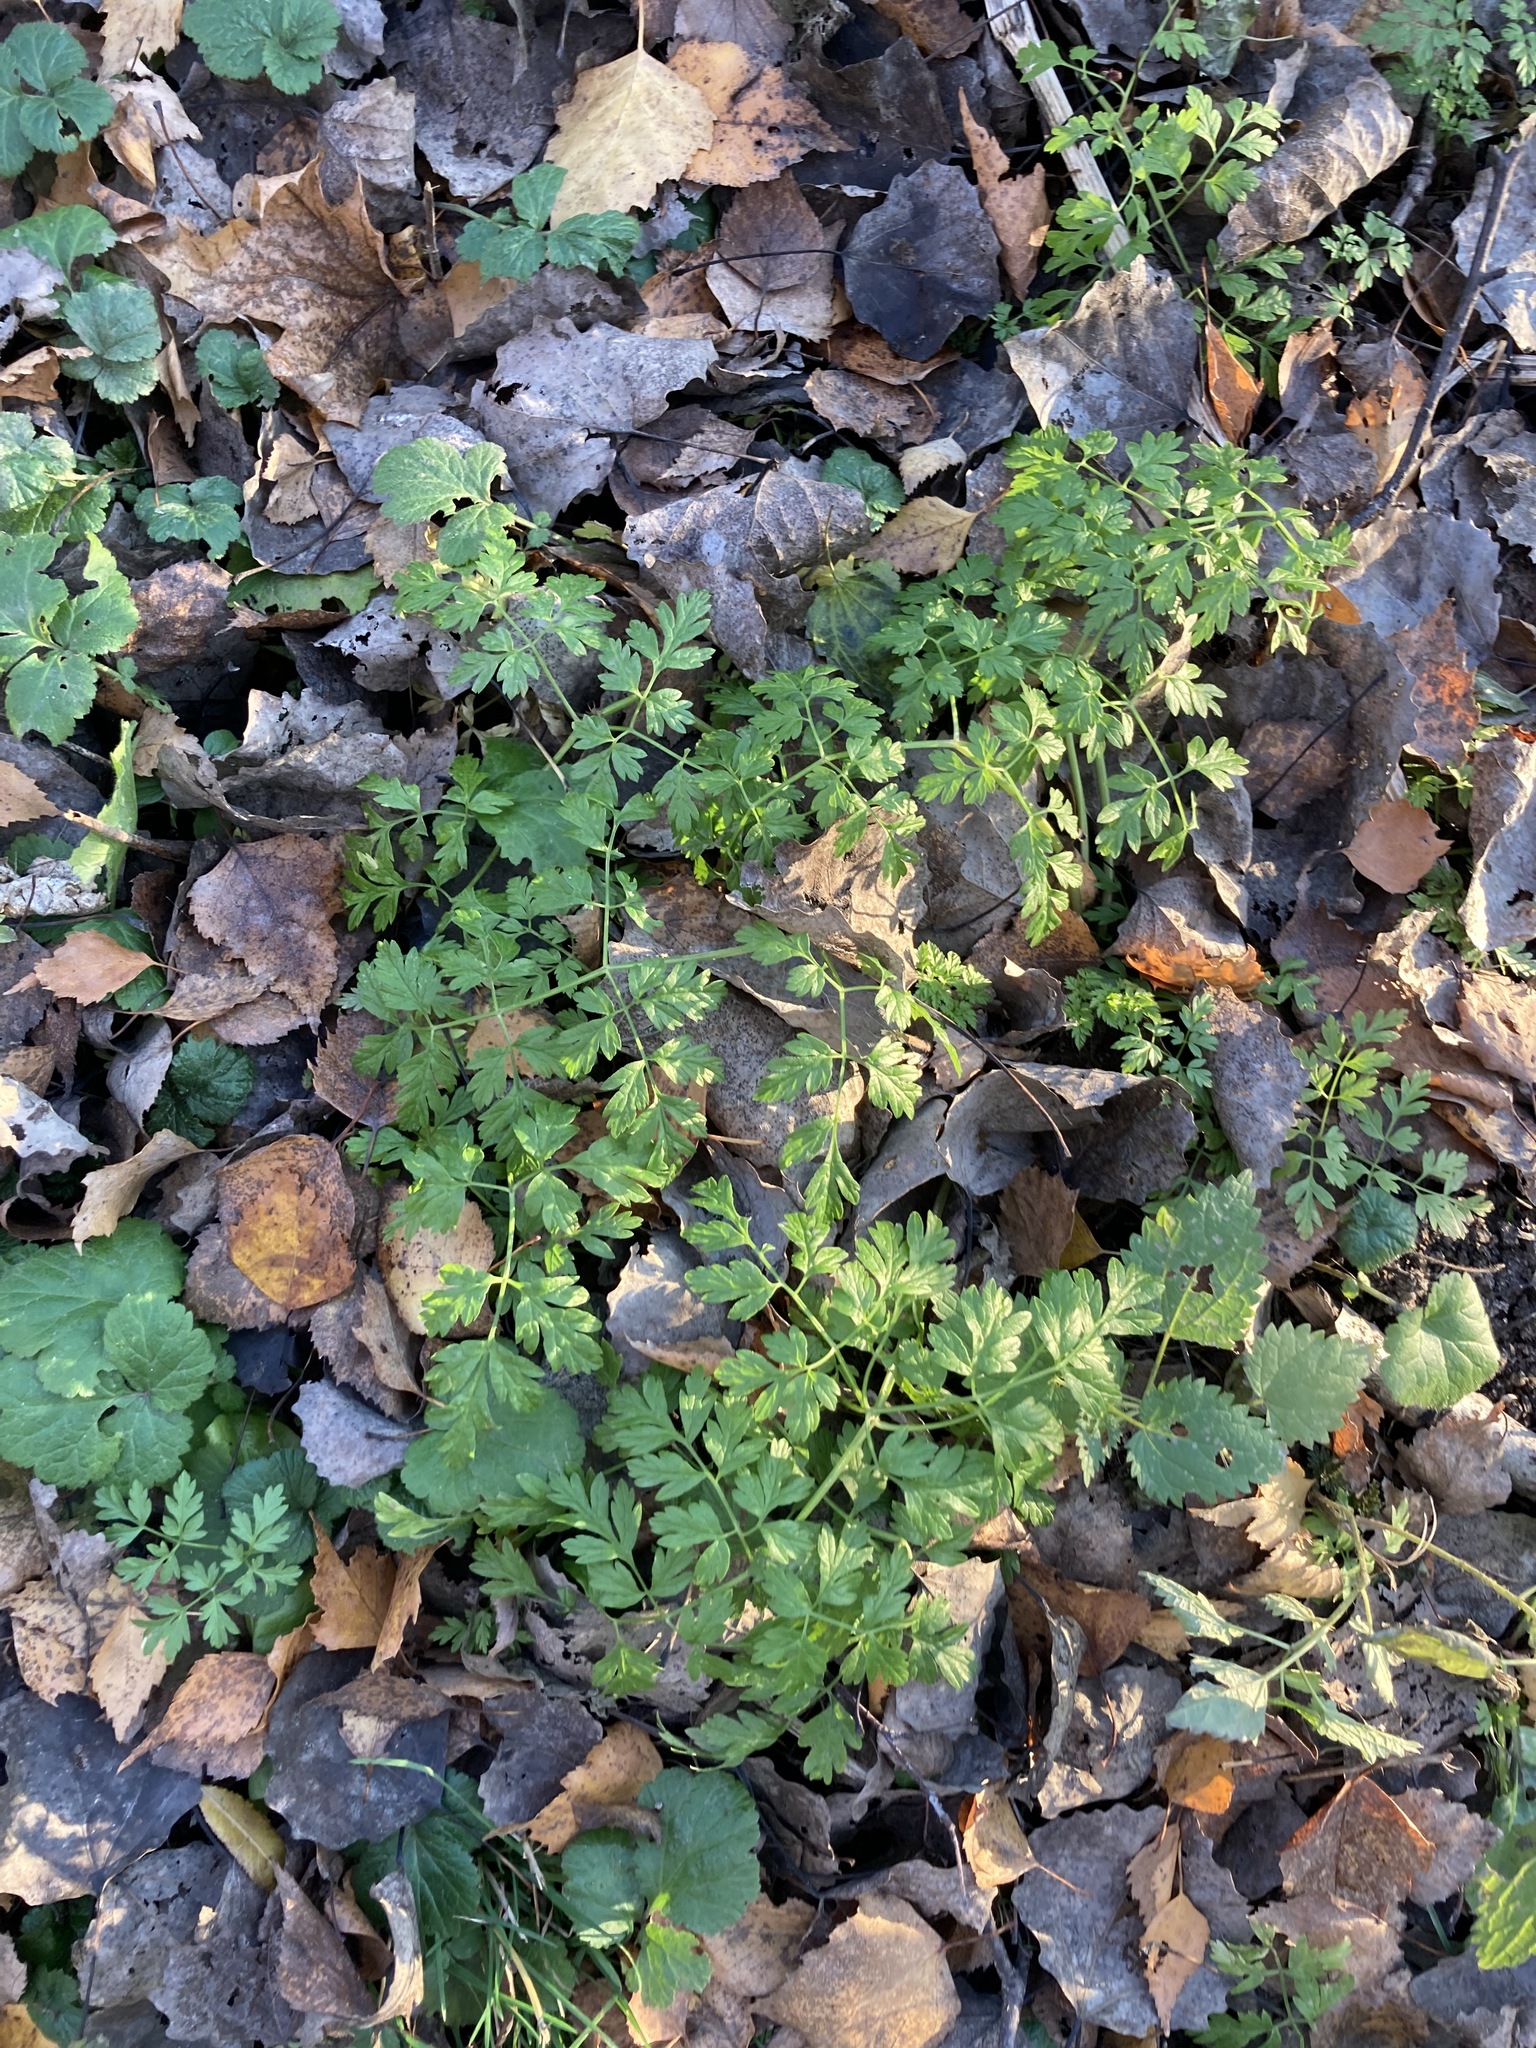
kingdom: Plantae
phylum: Tracheophyta
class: Magnoliopsida
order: Apiales
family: Apiaceae
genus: Anthriscus
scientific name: Anthriscus sylvestris
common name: Cow parsley
